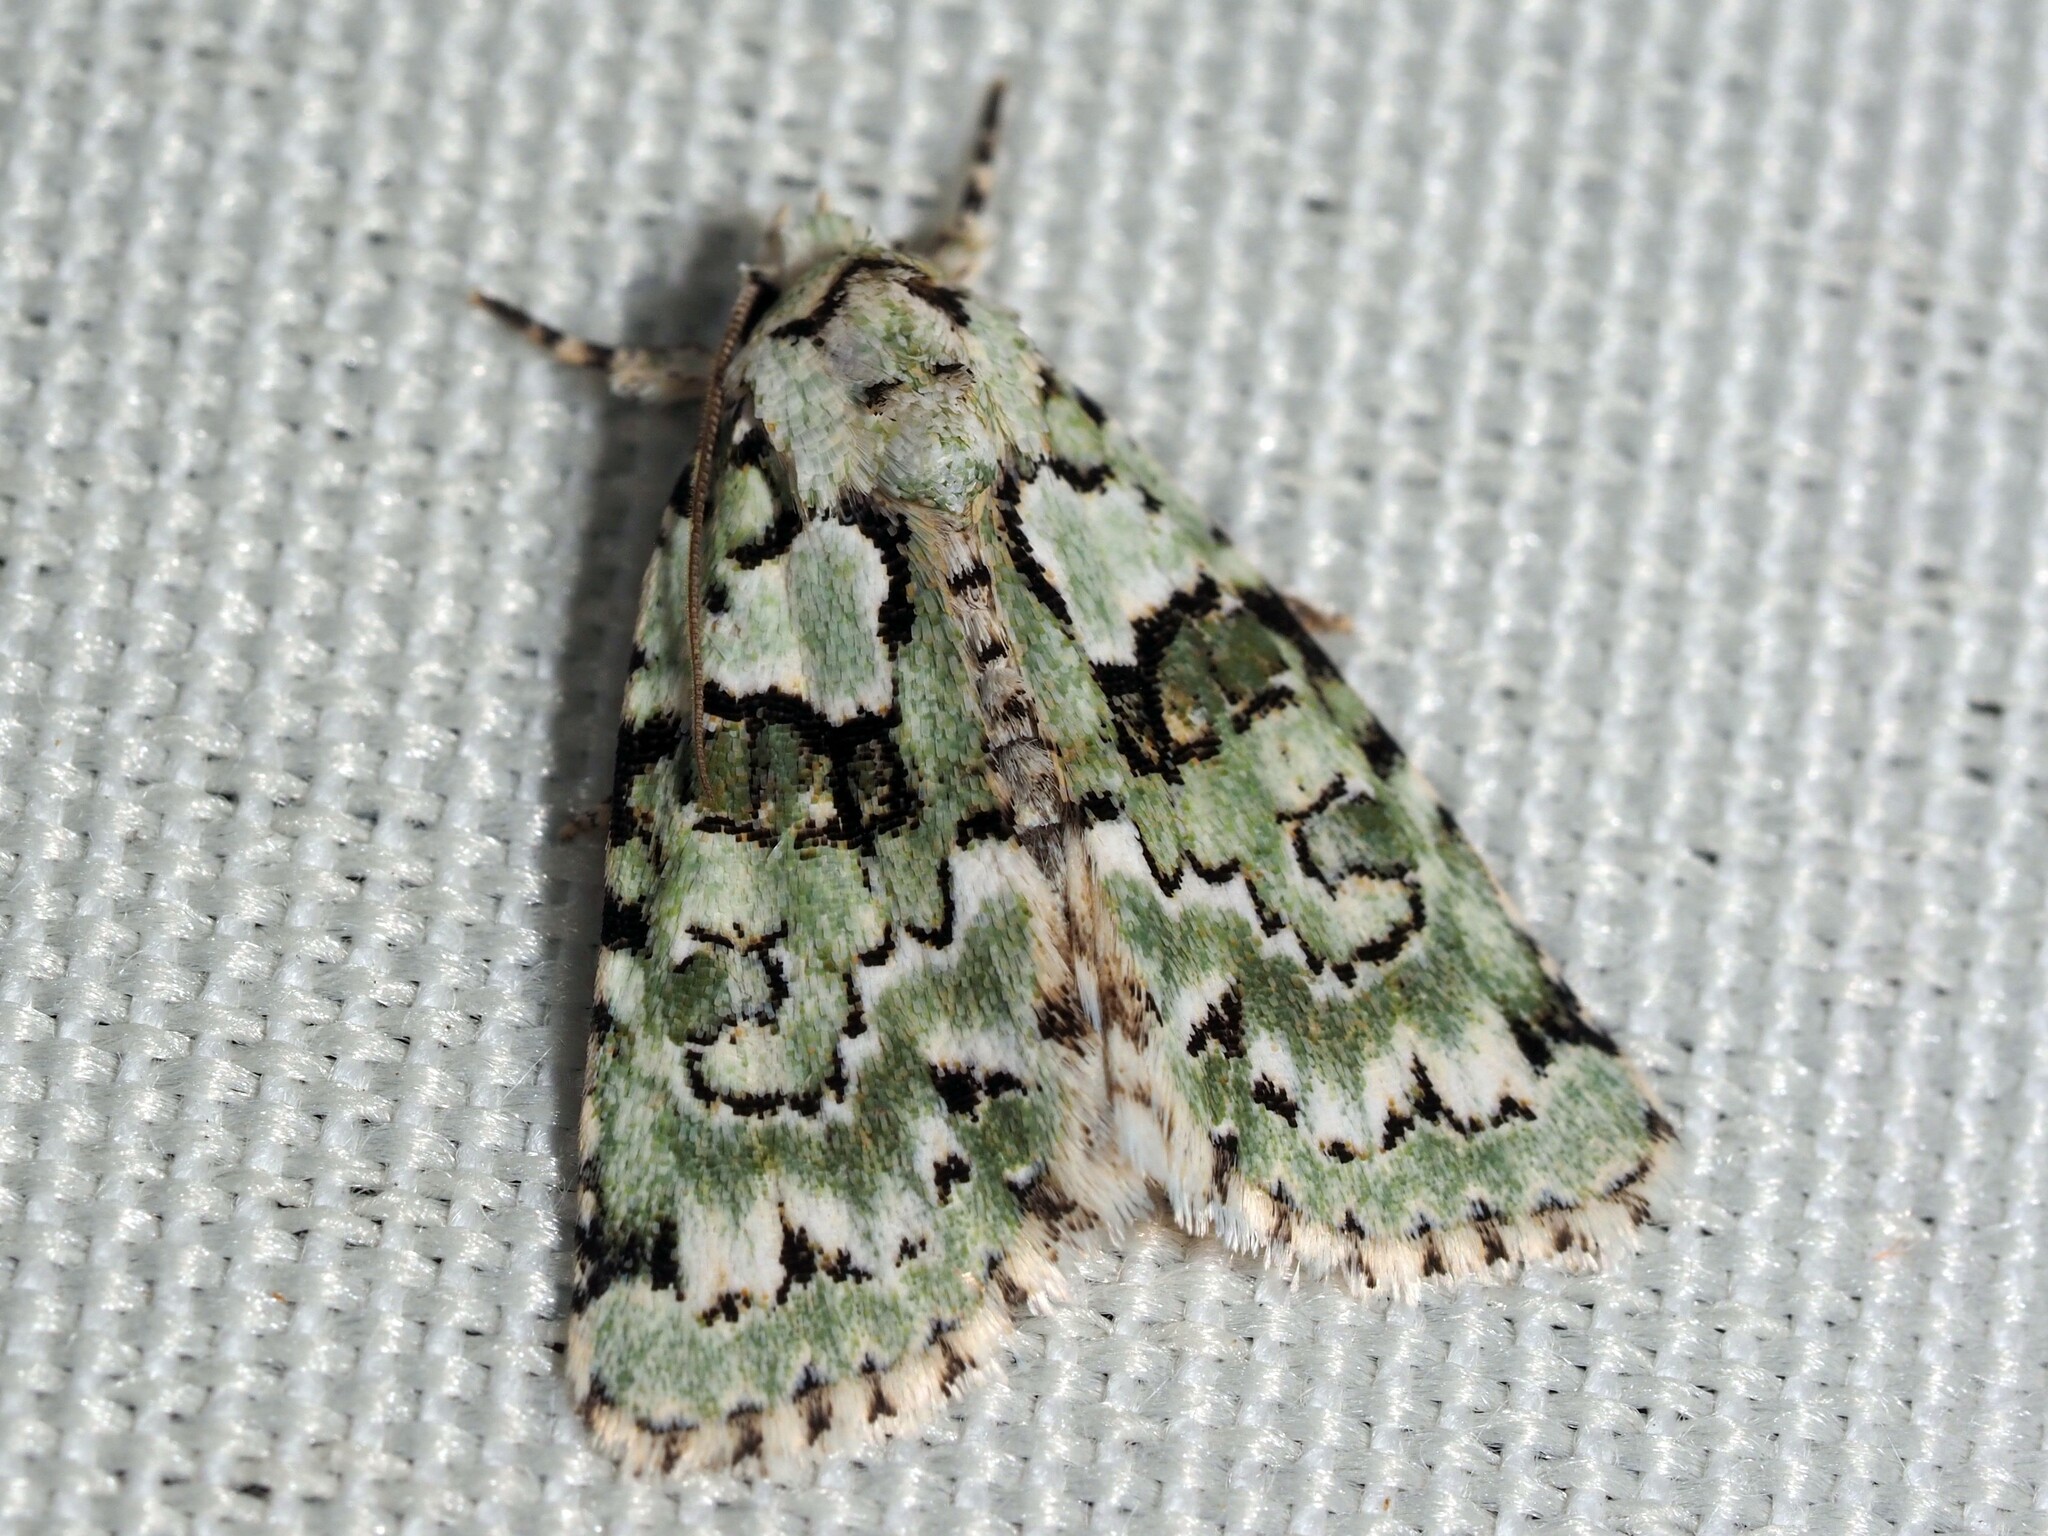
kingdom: Animalia
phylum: Arthropoda
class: Insecta
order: Lepidoptera
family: Noctuidae
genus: Nyctobrya
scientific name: Nyctobrya muralis
